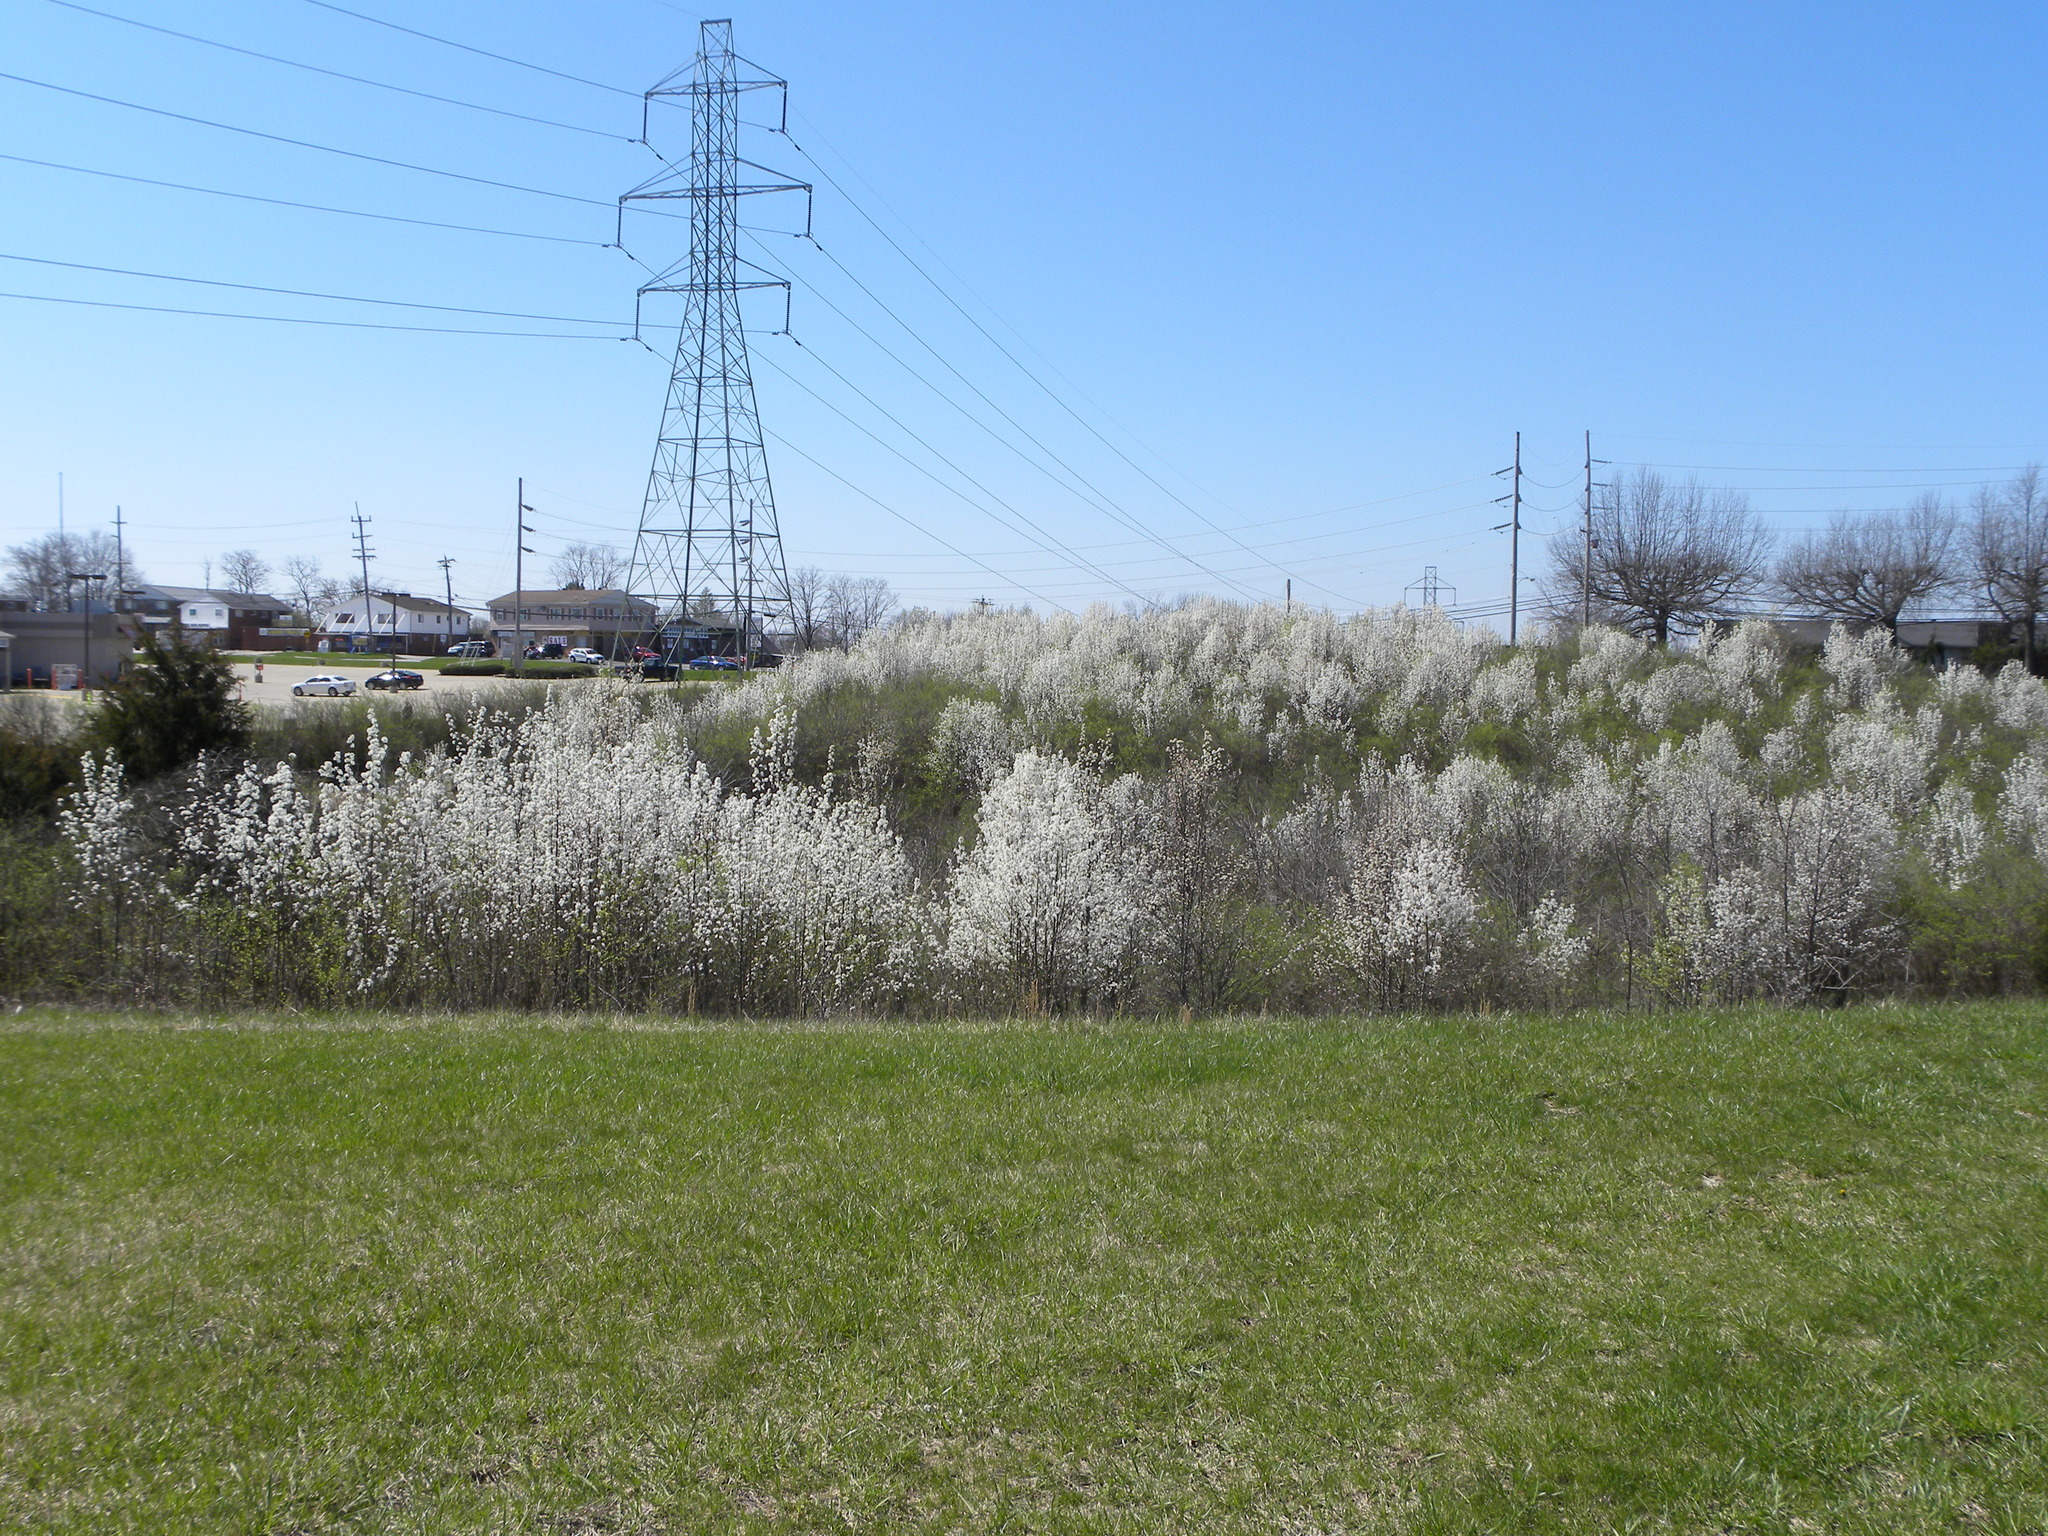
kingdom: Plantae
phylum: Tracheophyta
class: Magnoliopsida
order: Rosales
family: Rosaceae
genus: Pyrus
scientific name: Pyrus calleryana
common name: Callery pear
